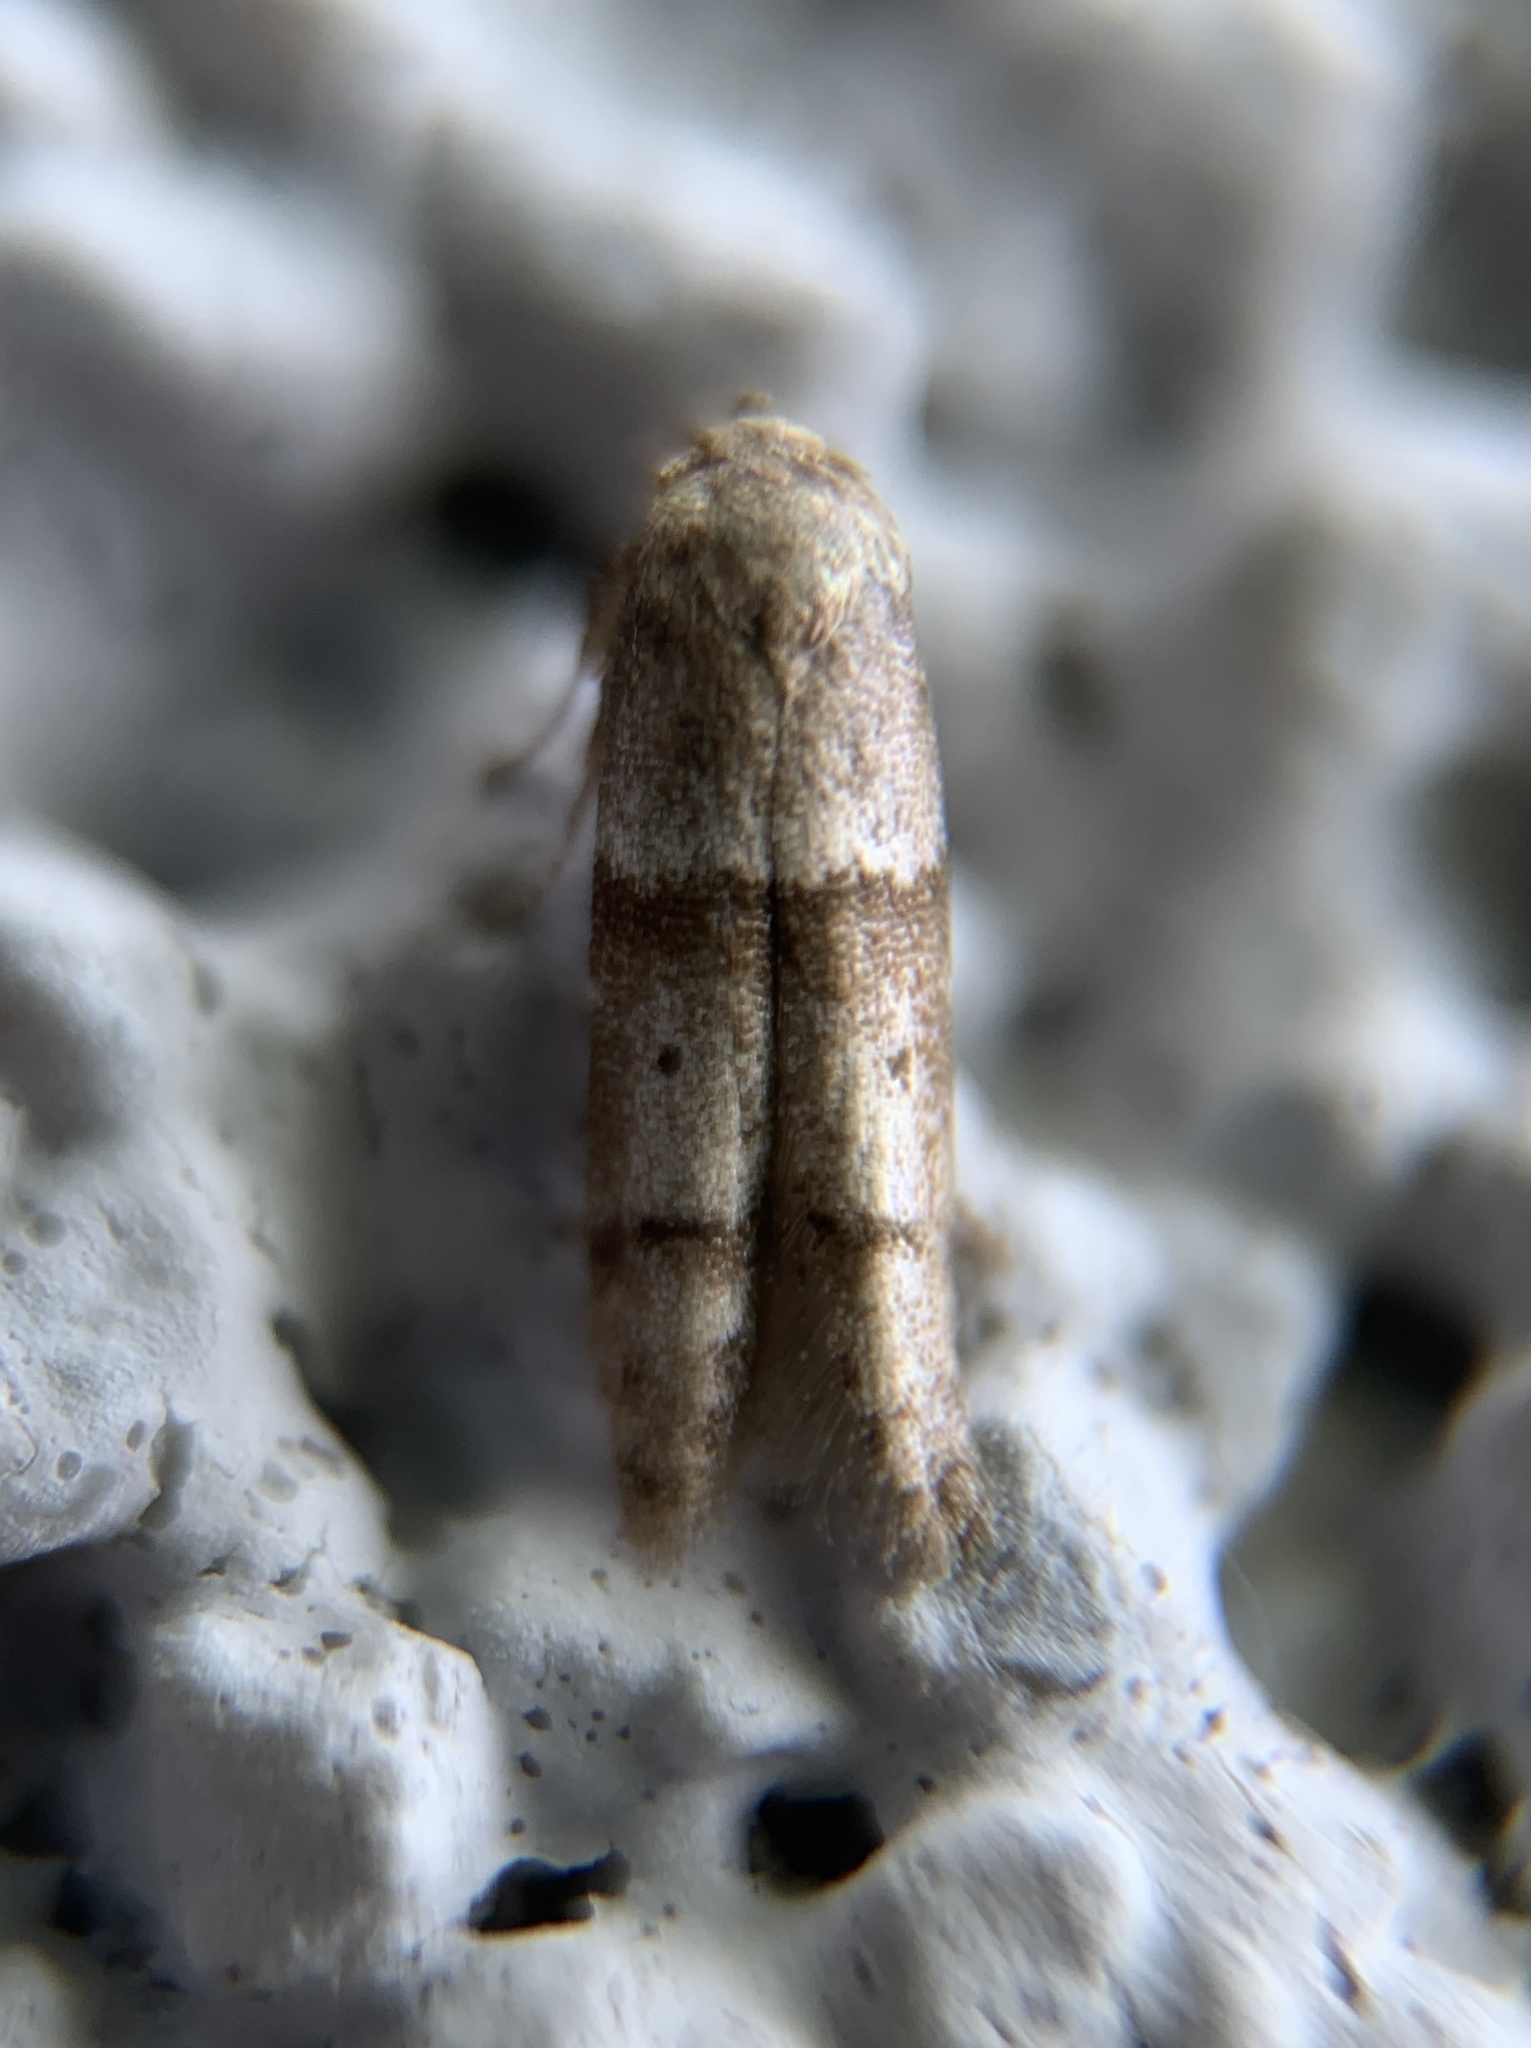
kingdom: Animalia
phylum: Arthropoda
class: Insecta
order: Lepidoptera
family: Blastobasidae
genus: Blastobasis
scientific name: Blastobasis pulchella
